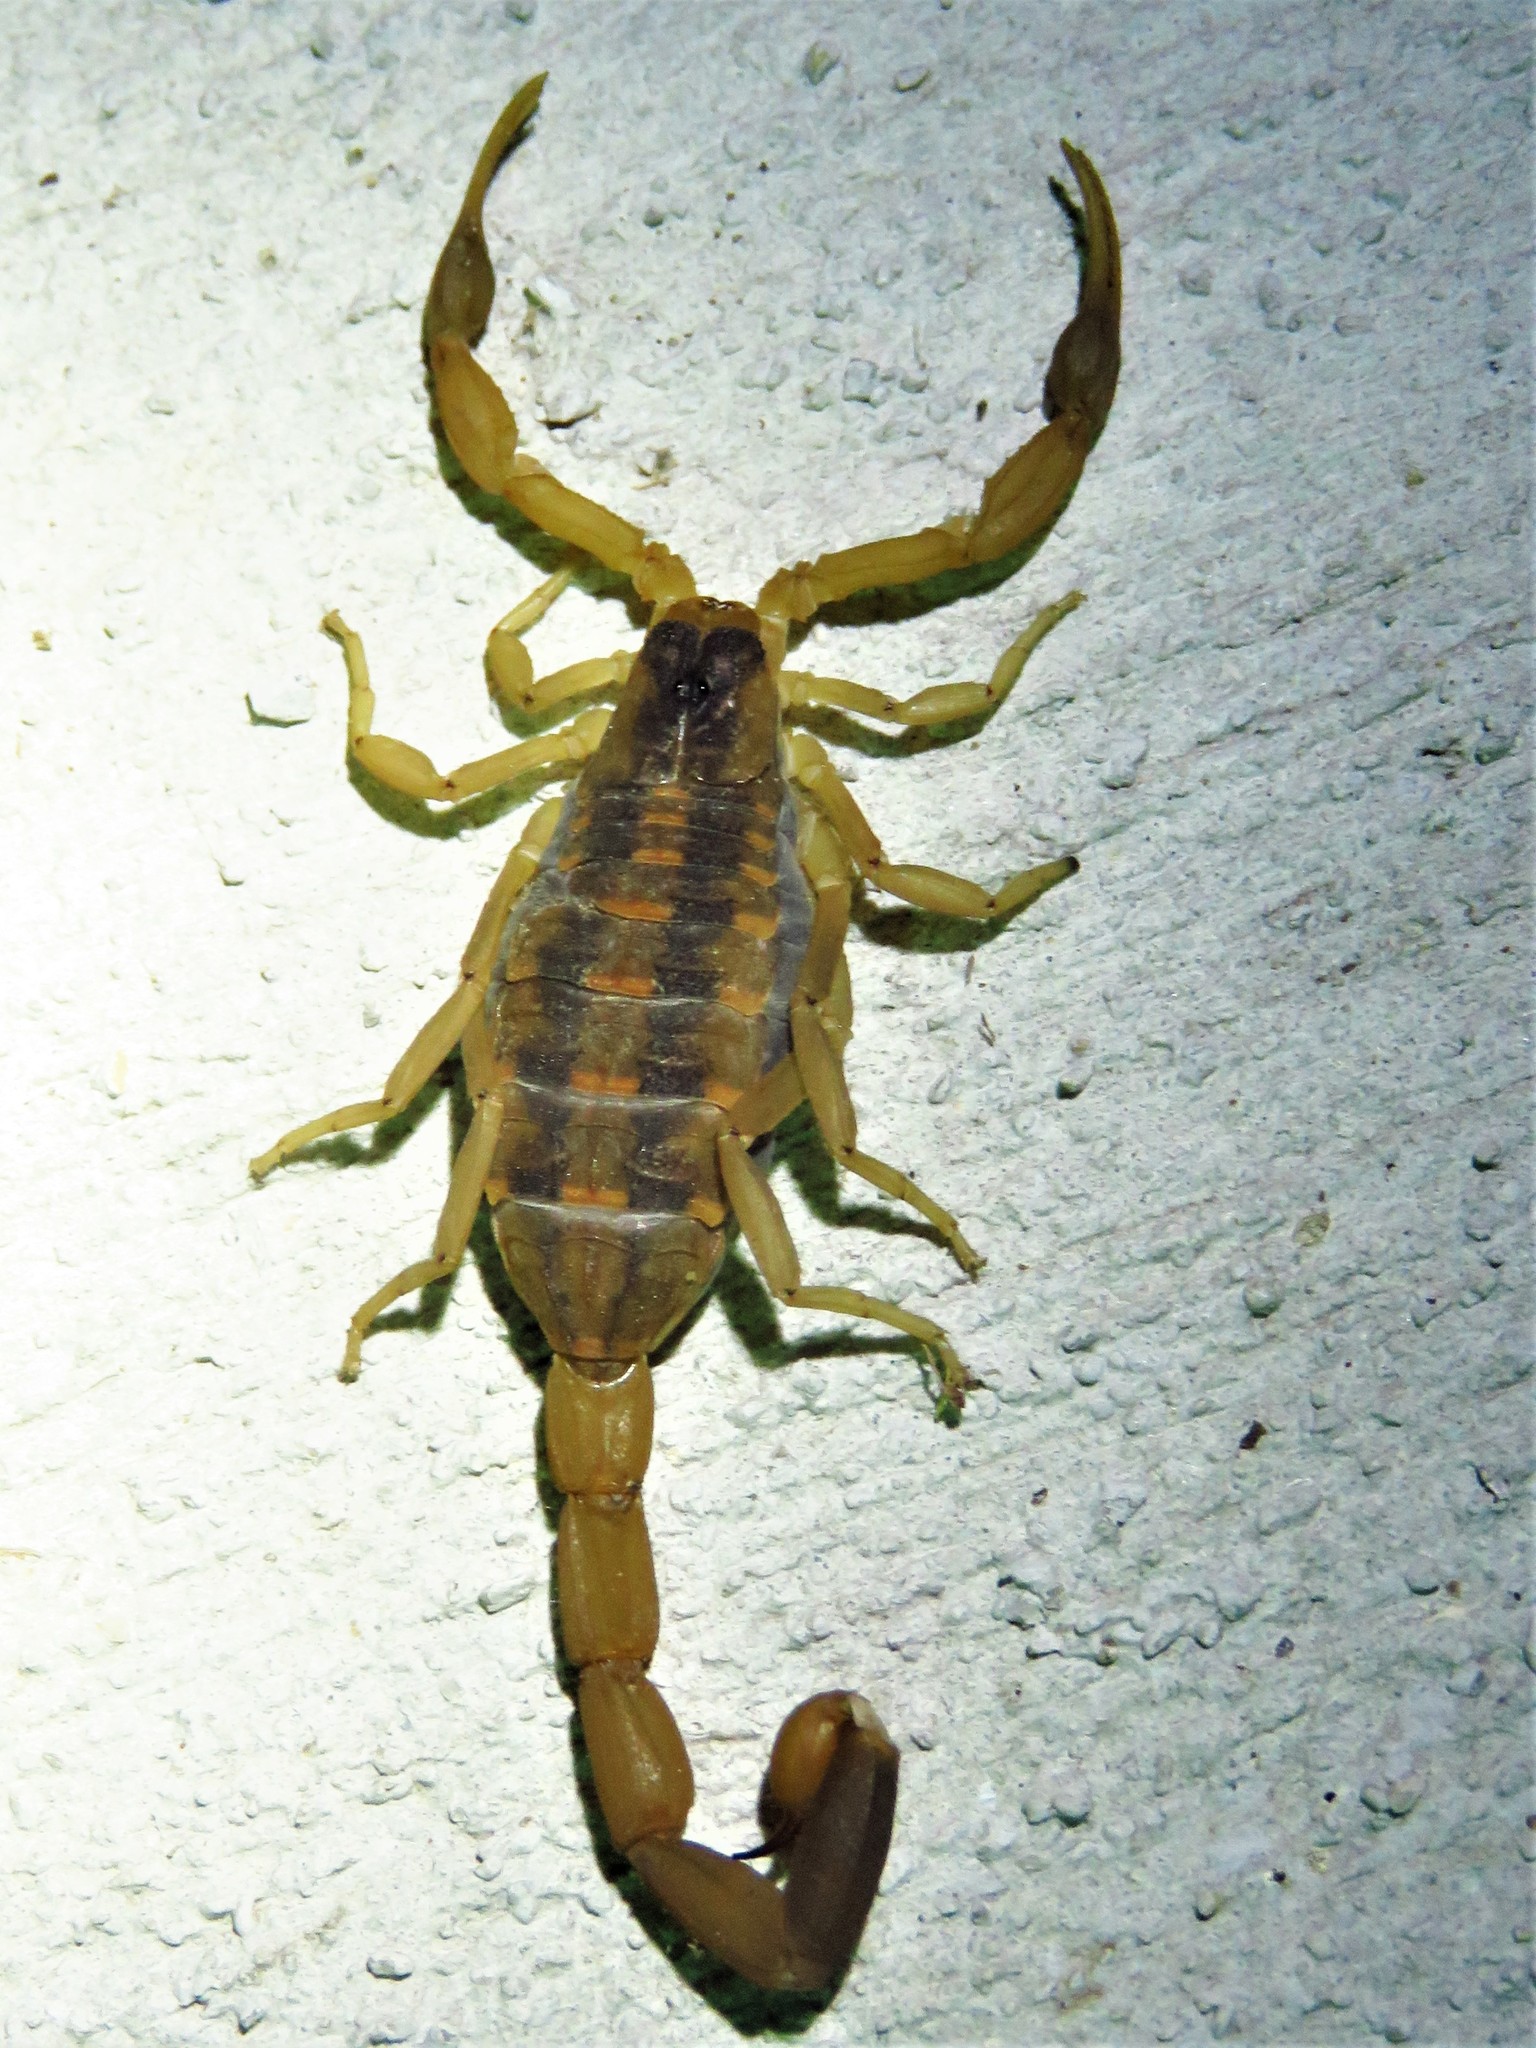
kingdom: Animalia
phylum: Arthropoda
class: Arachnida
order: Scorpiones
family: Buthidae
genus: Centruroides
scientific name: Centruroides vittatus
